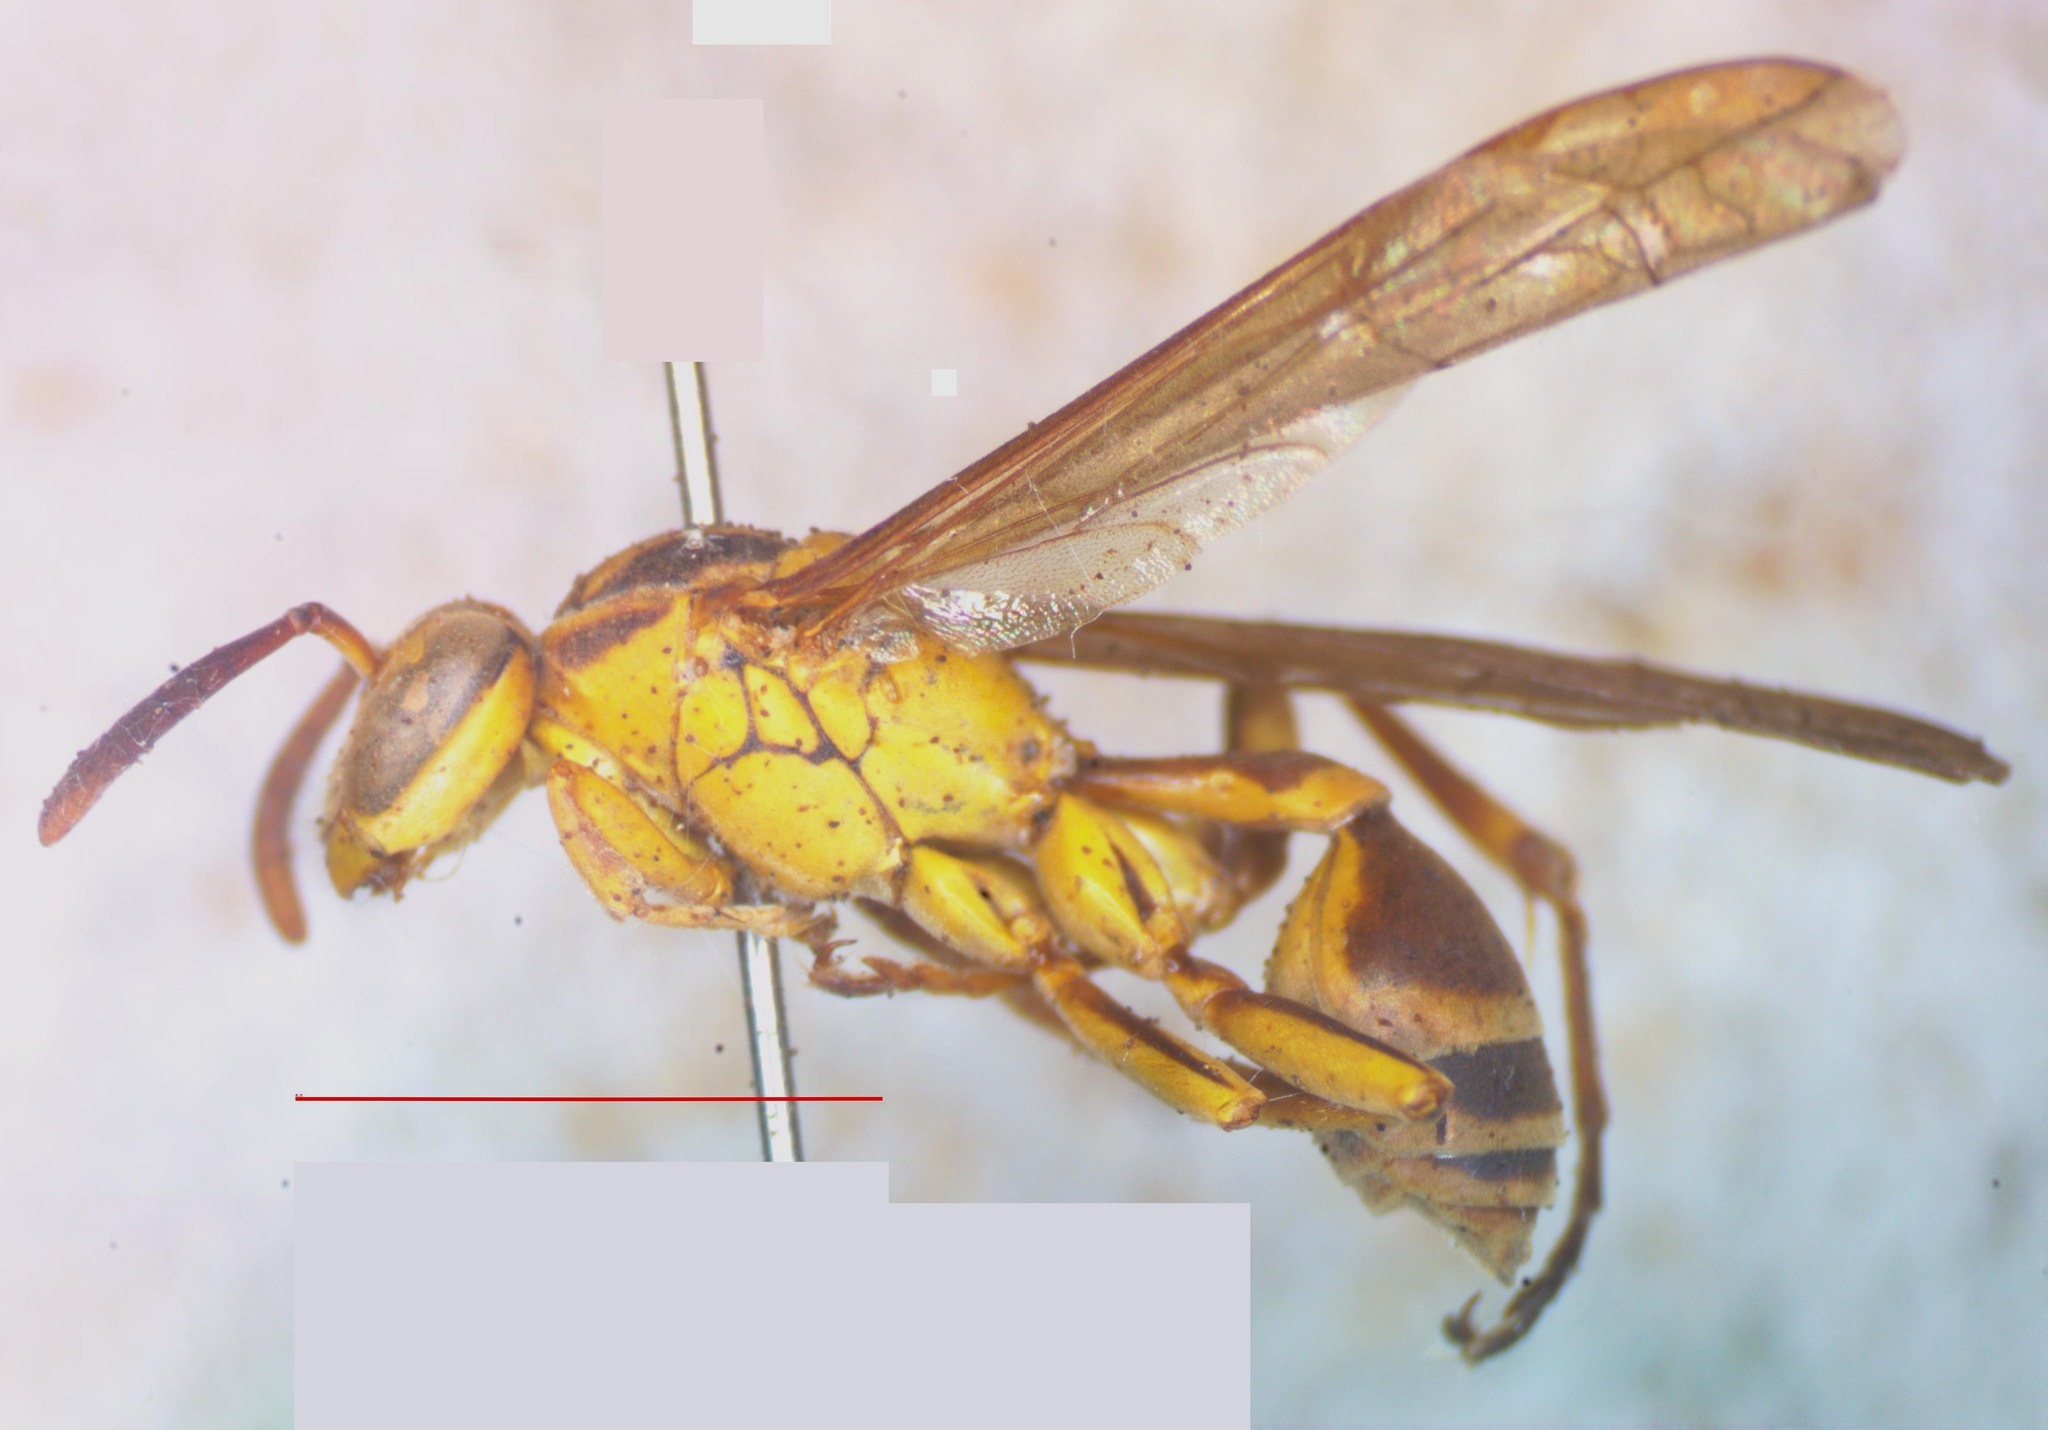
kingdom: Animalia
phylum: Arthropoda
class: Insecta
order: Hymenoptera
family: Vespidae
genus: Mischocyttarus
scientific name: Mischocyttarus consimilis
